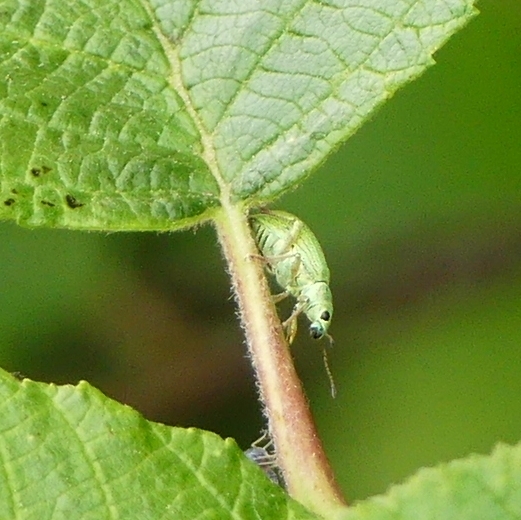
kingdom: Animalia
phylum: Arthropoda
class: Insecta
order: Coleoptera
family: Curculionidae
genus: Polydrusus
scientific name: Polydrusus formosus
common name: Weevil
